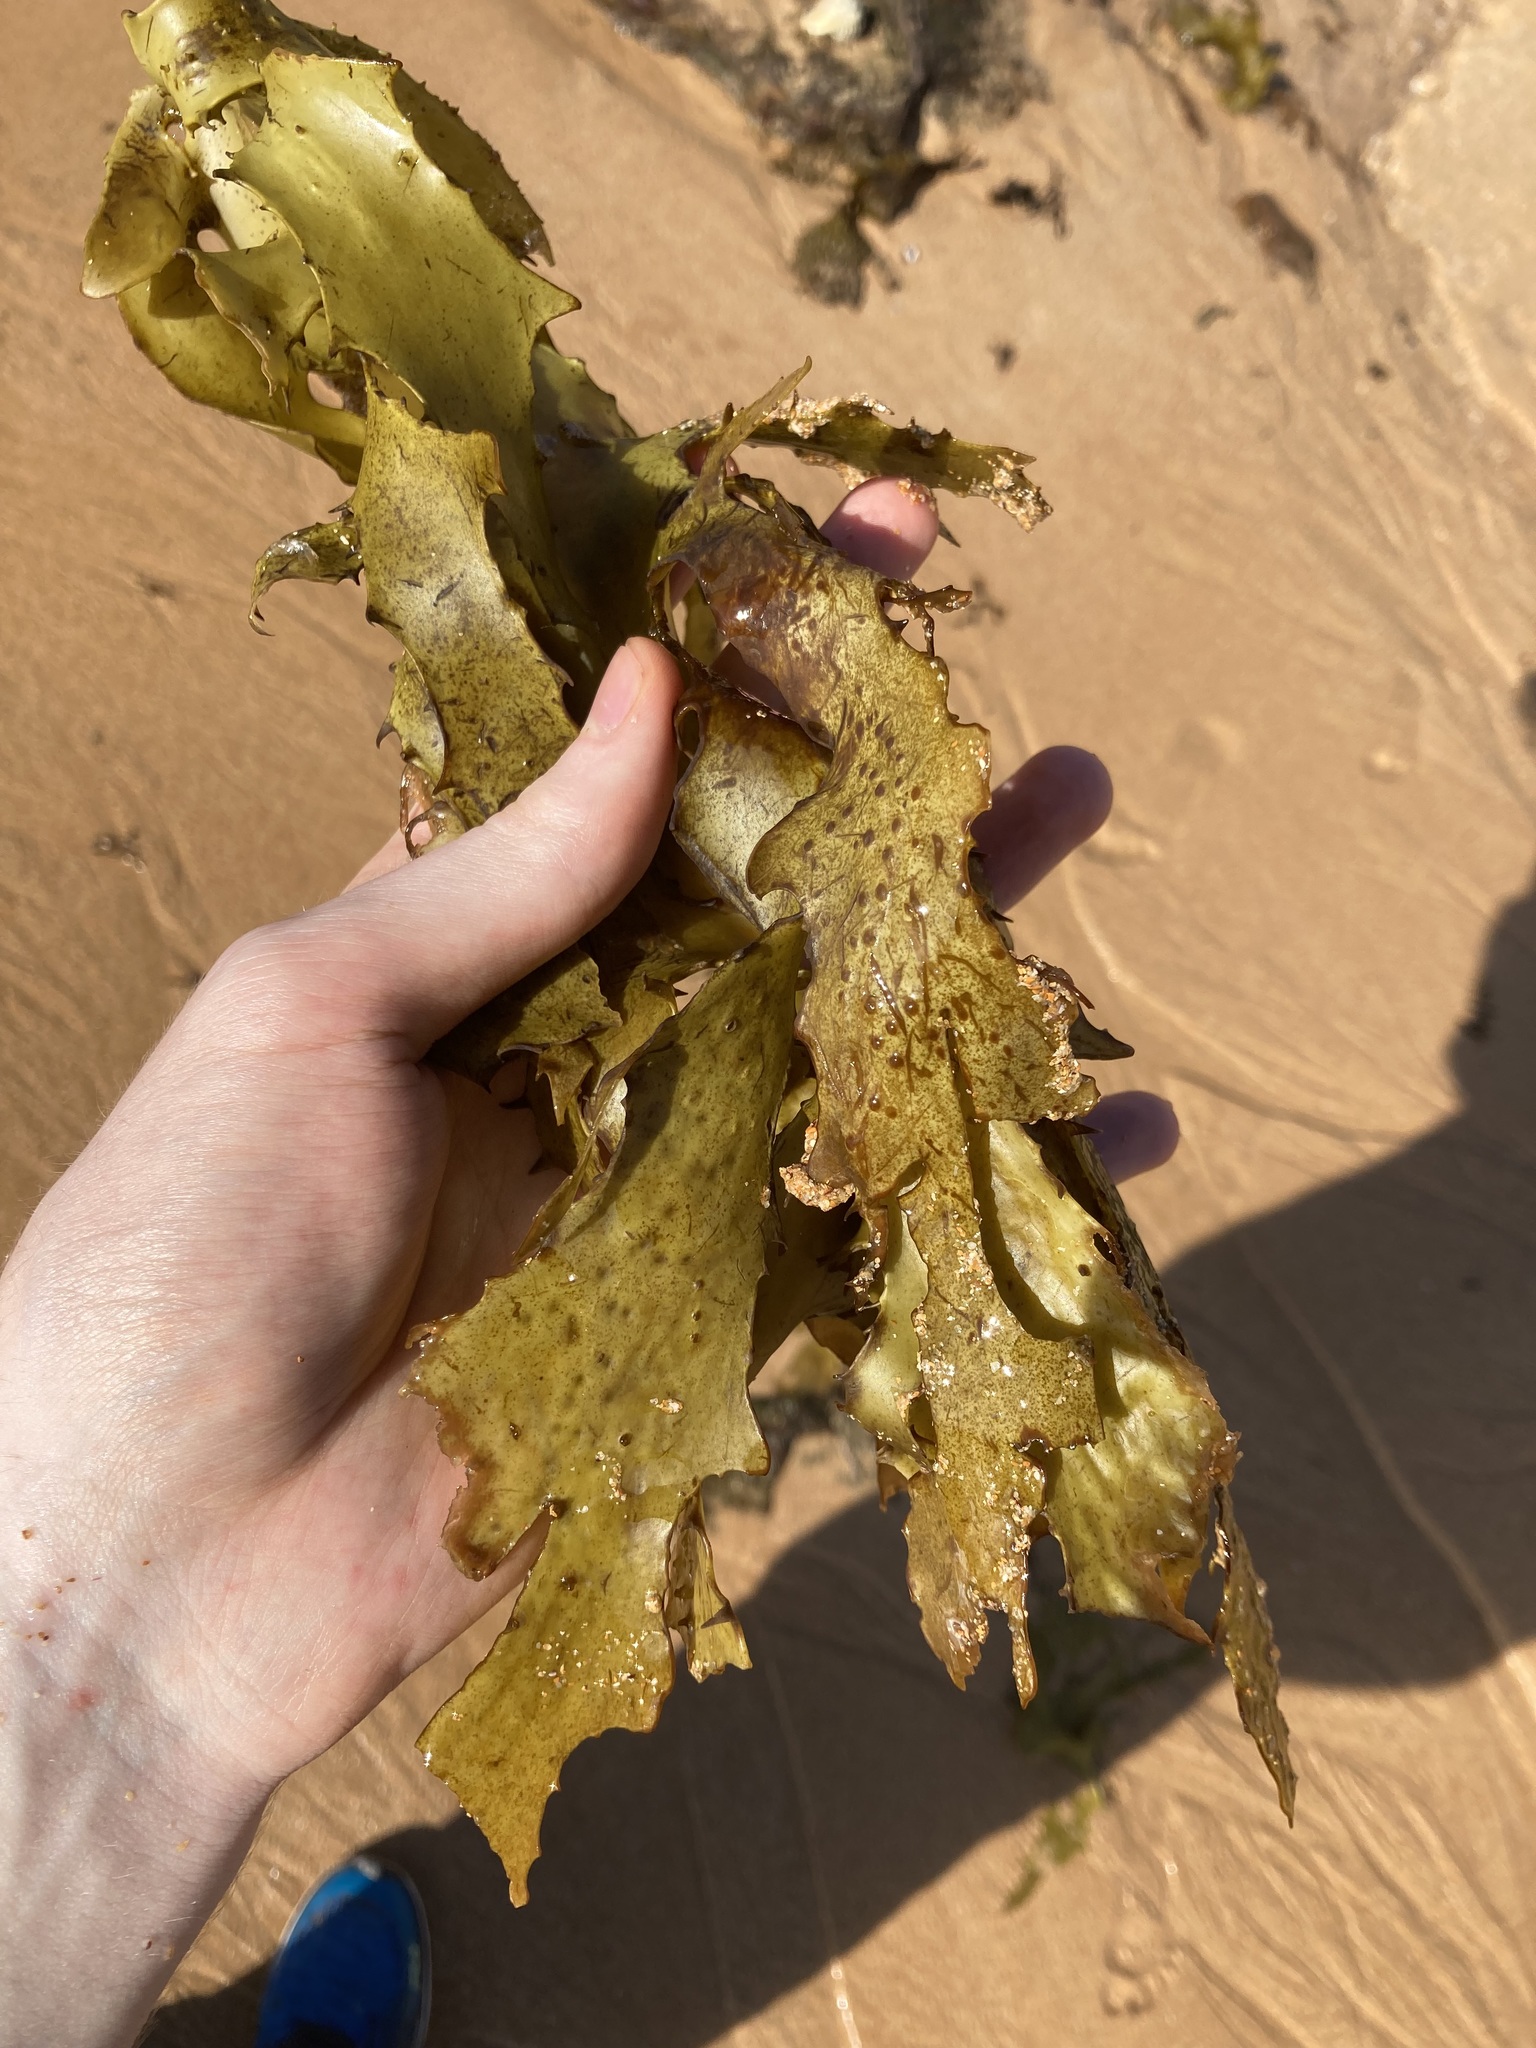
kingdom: Chromista
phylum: Ochrophyta
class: Phaeophyceae
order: Laminariales
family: Lessoniaceae
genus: Ecklonia
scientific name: Ecklonia radiata
